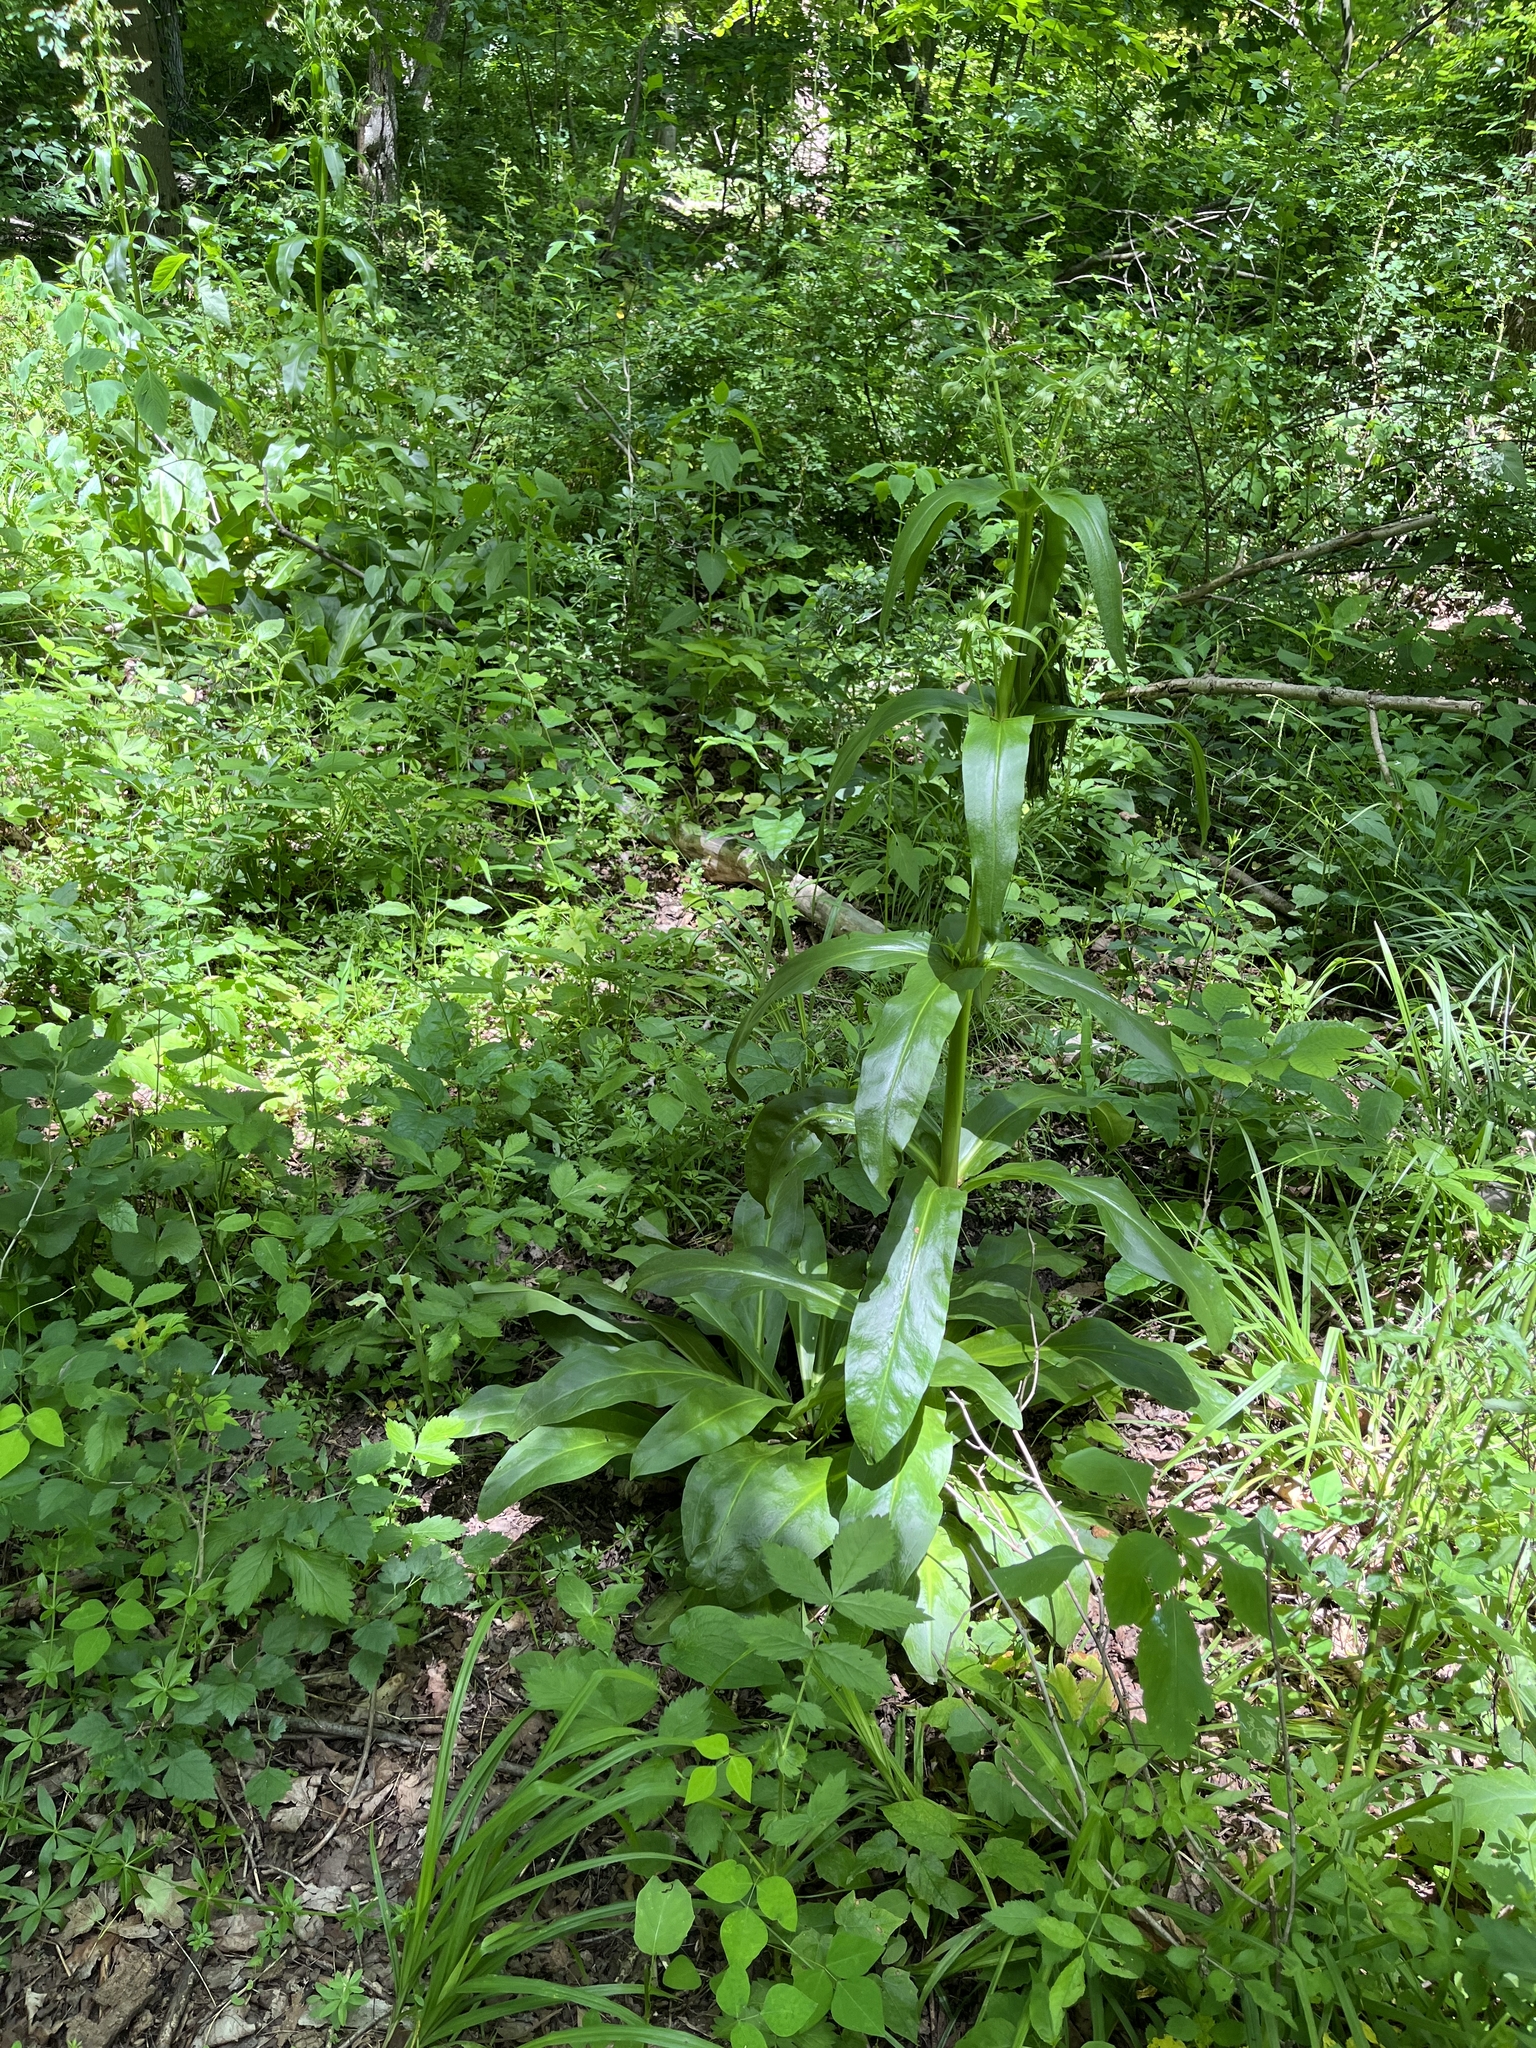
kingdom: Plantae
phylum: Tracheophyta
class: Magnoliopsida
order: Gentianales
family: Gentianaceae
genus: Frasera
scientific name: Frasera caroliniensis
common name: American columbo
